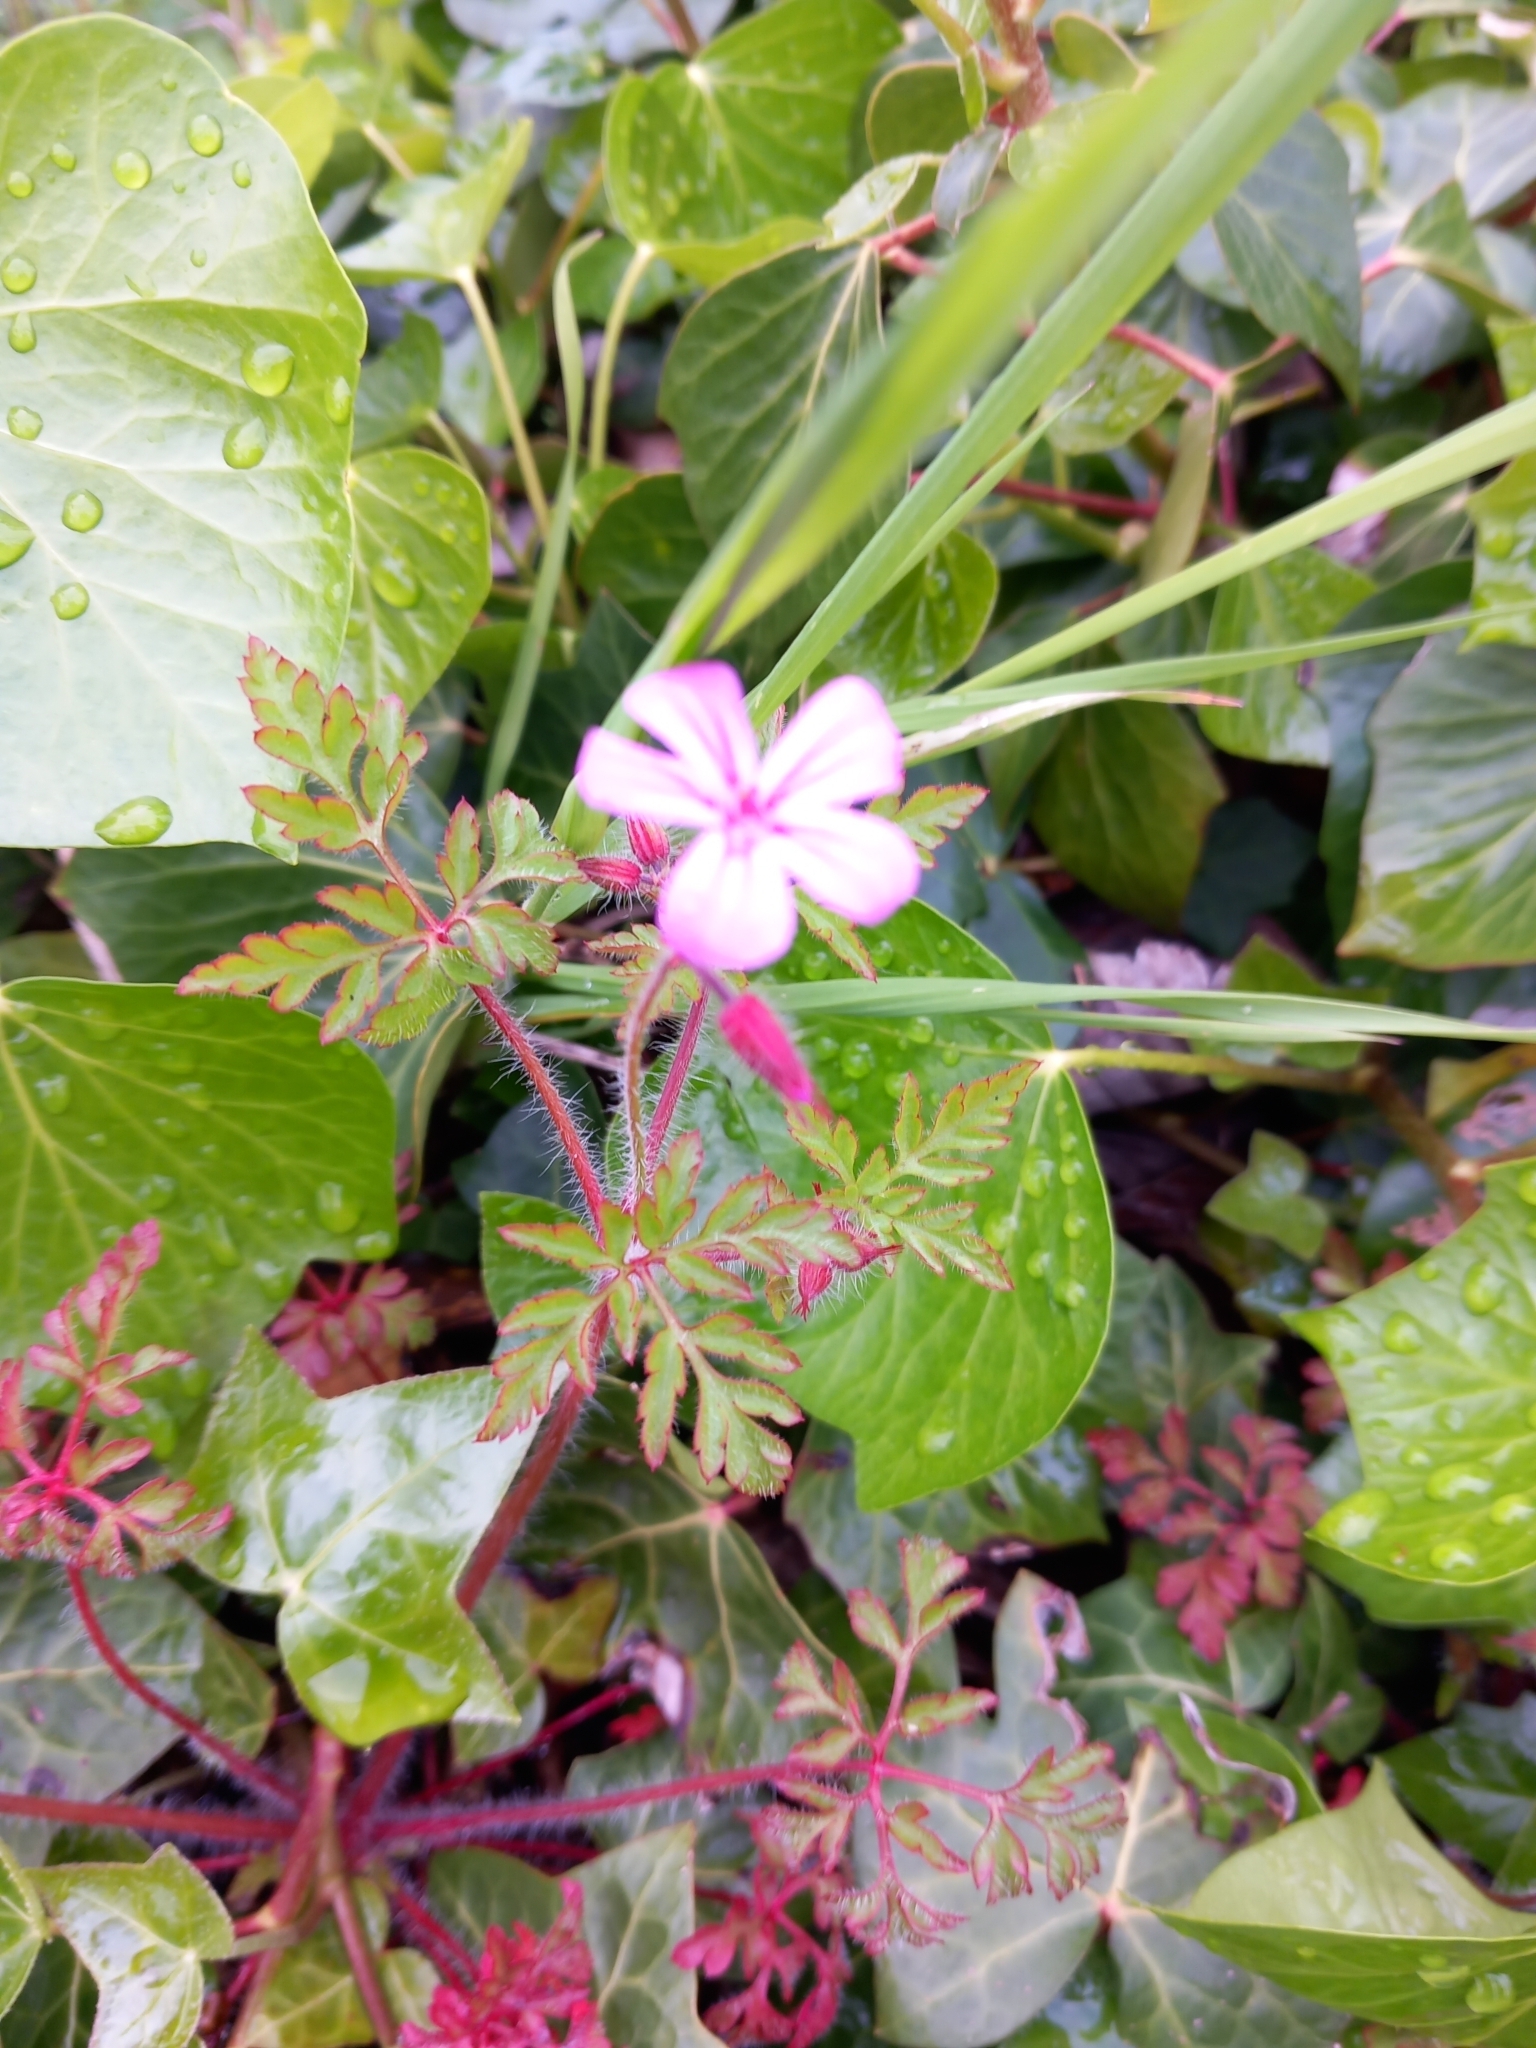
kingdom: Plantae
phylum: Tracheophyta
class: Magnoliopsida
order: Geraniales
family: Geraniaceae
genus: Geranium
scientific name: Geranium robertianum
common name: Herb-robert
